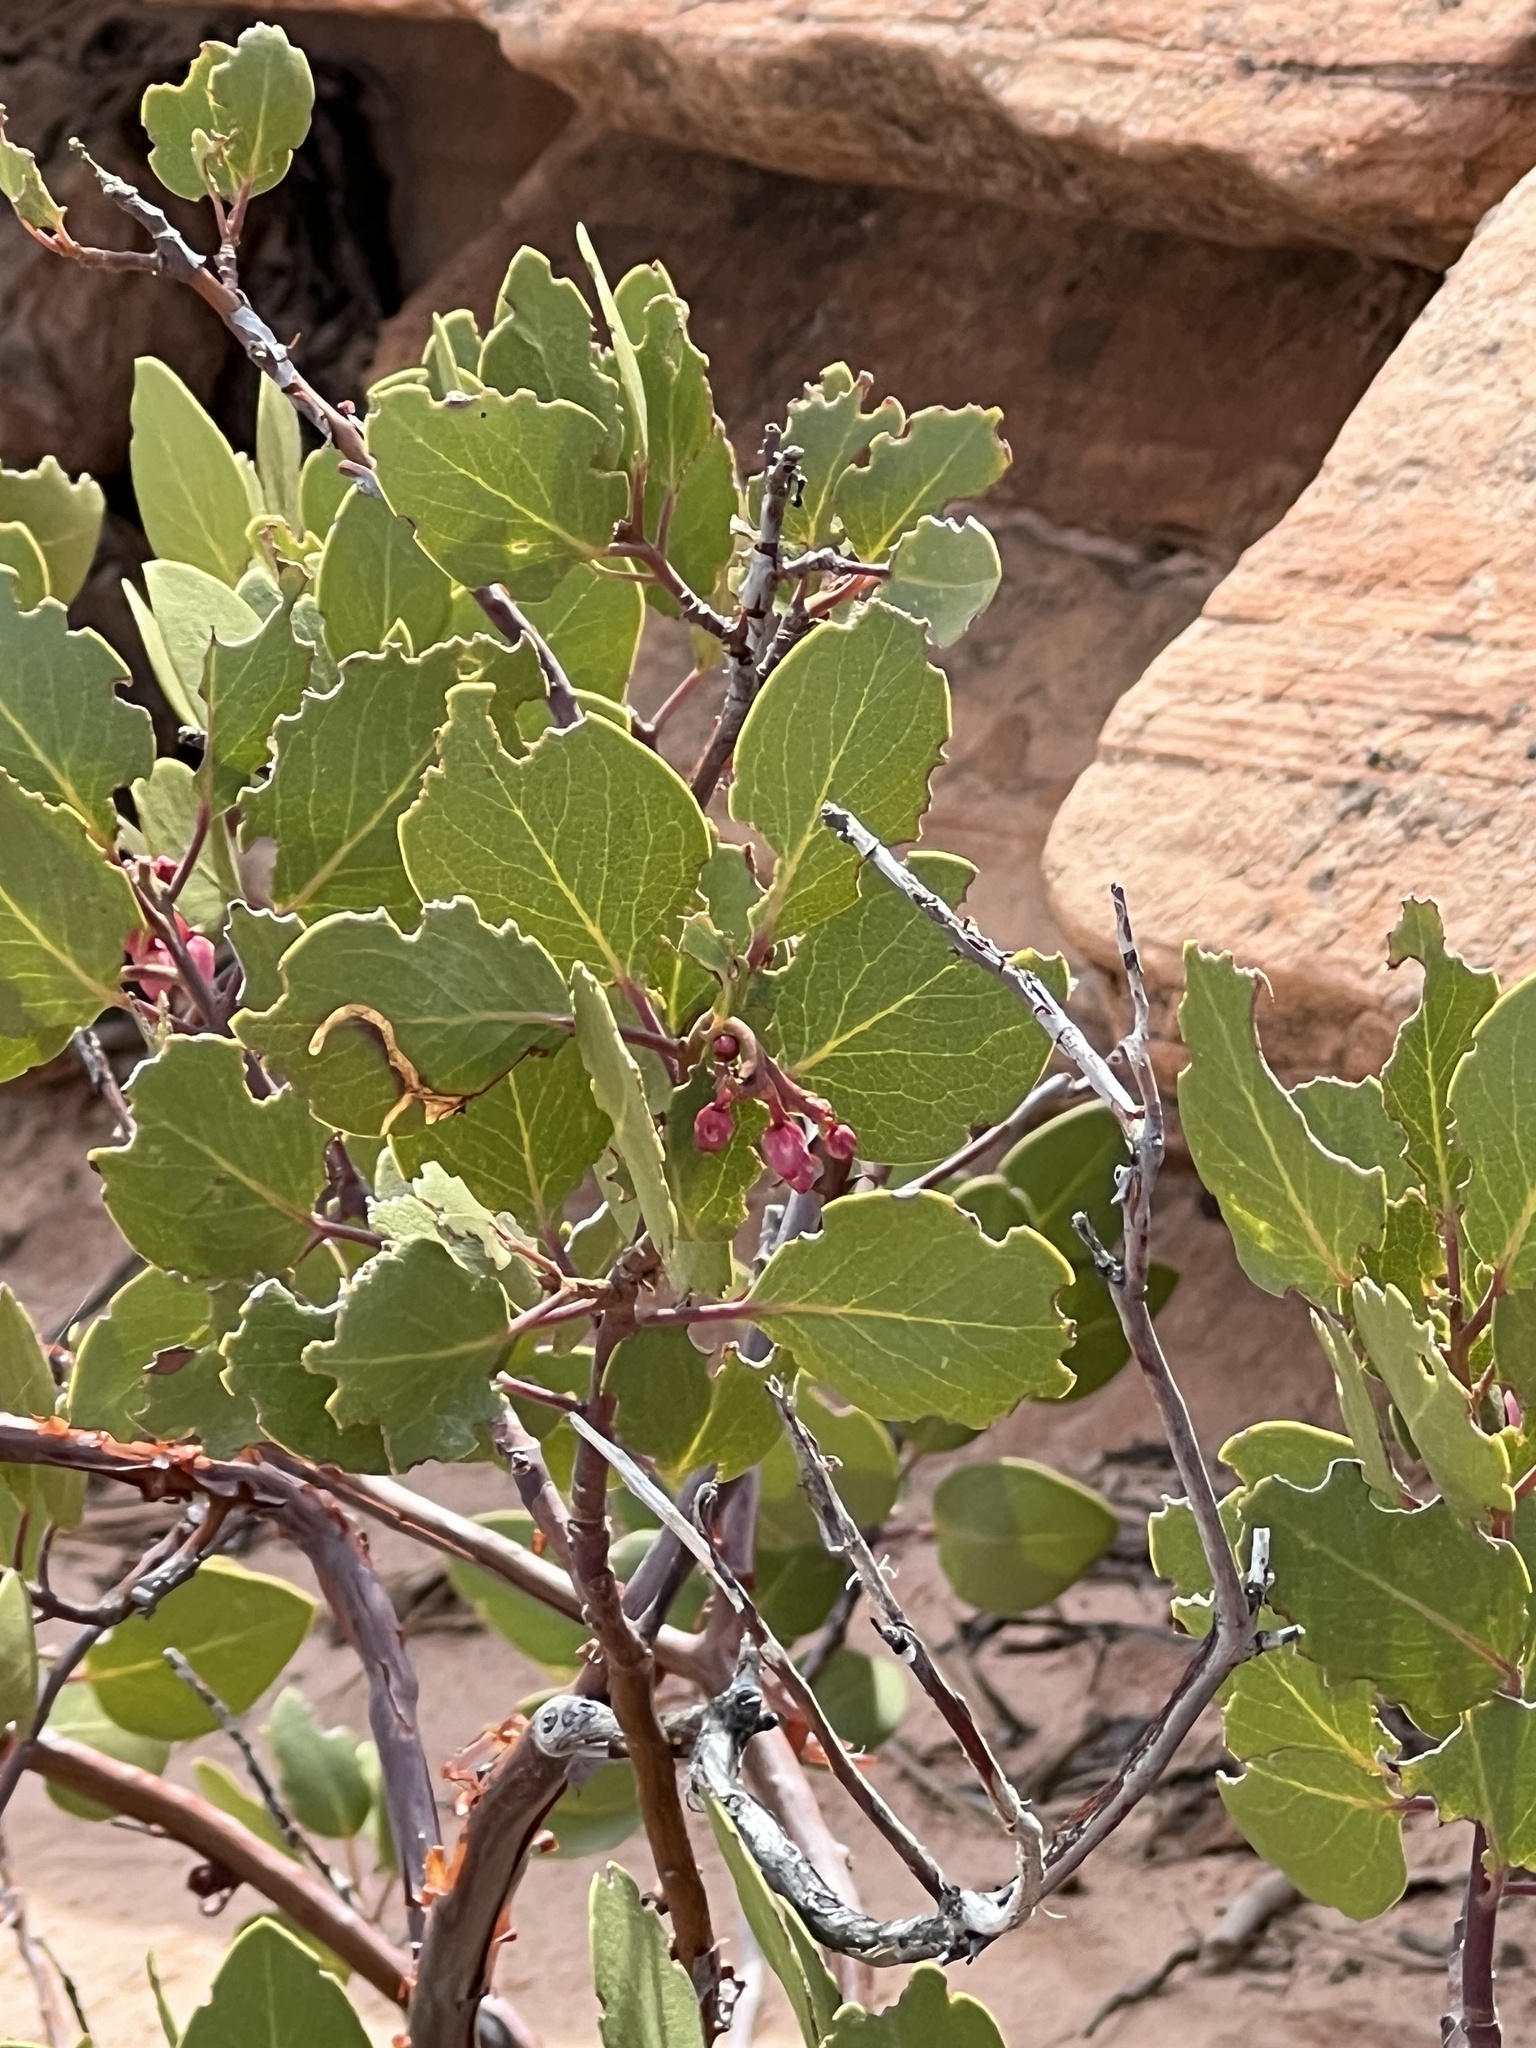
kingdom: Plantae
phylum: Tracheophyta
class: Magnoliopsida
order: Ericales
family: Ericaceae
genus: Arctostaphylos
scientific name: Arctostaphylos patula
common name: Green-leaf manzanita
